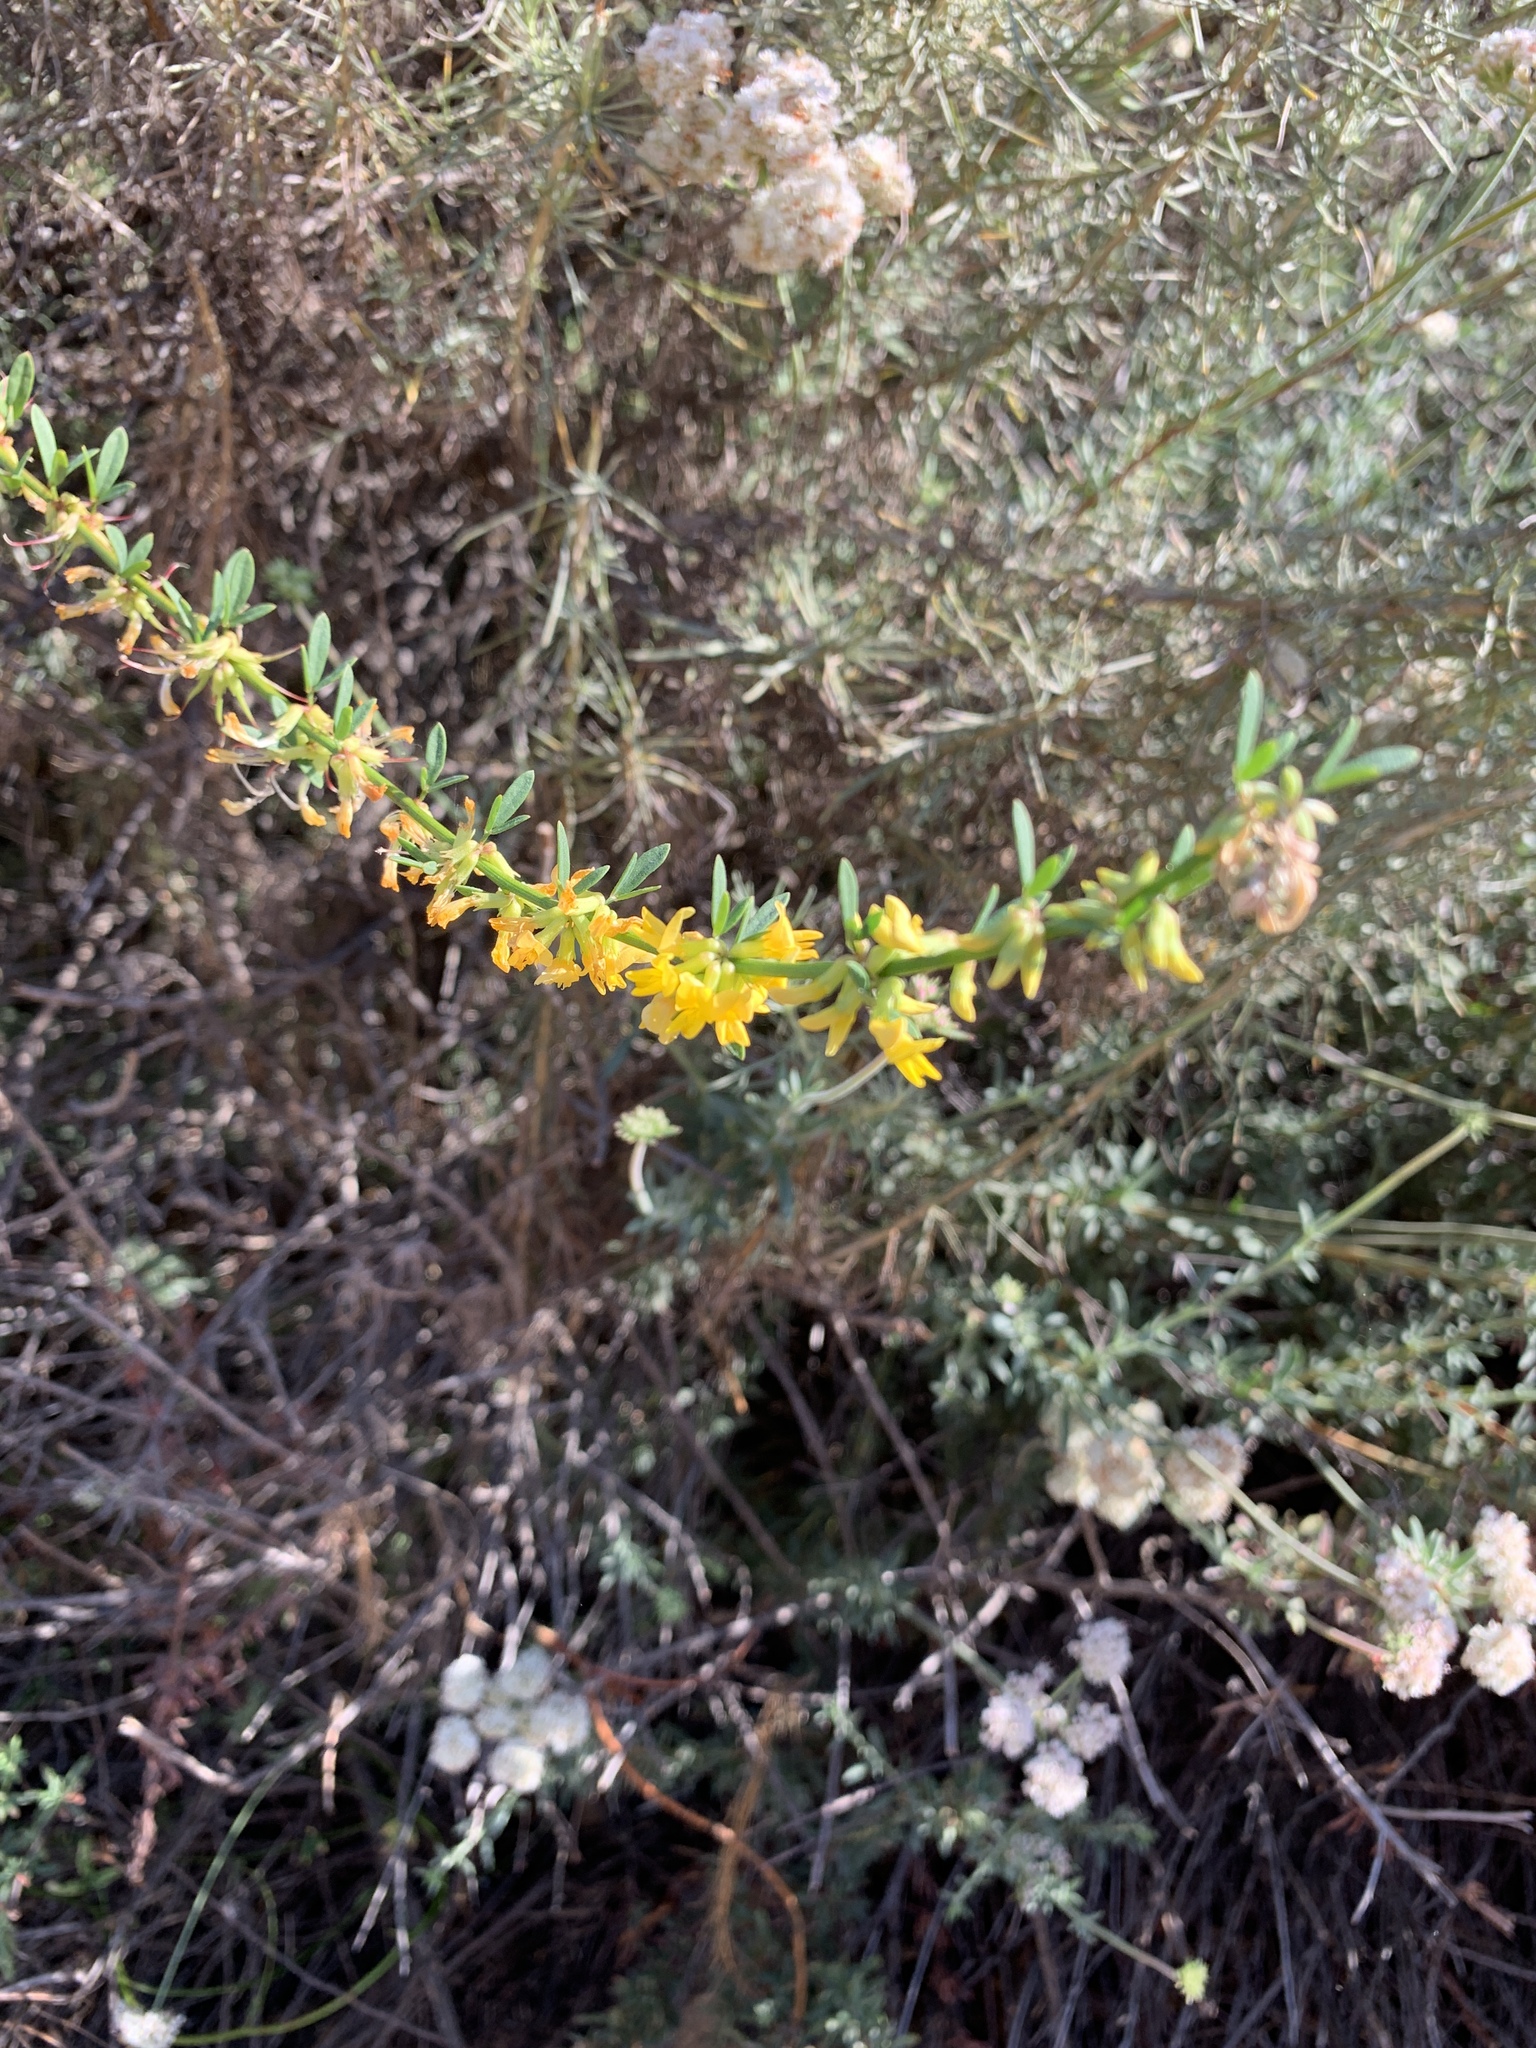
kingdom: Plantae
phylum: Tracheophyta
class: Magnoliopsida
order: Fabales
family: Fabaceae
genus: Acmispon
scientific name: Acmispon glaber
